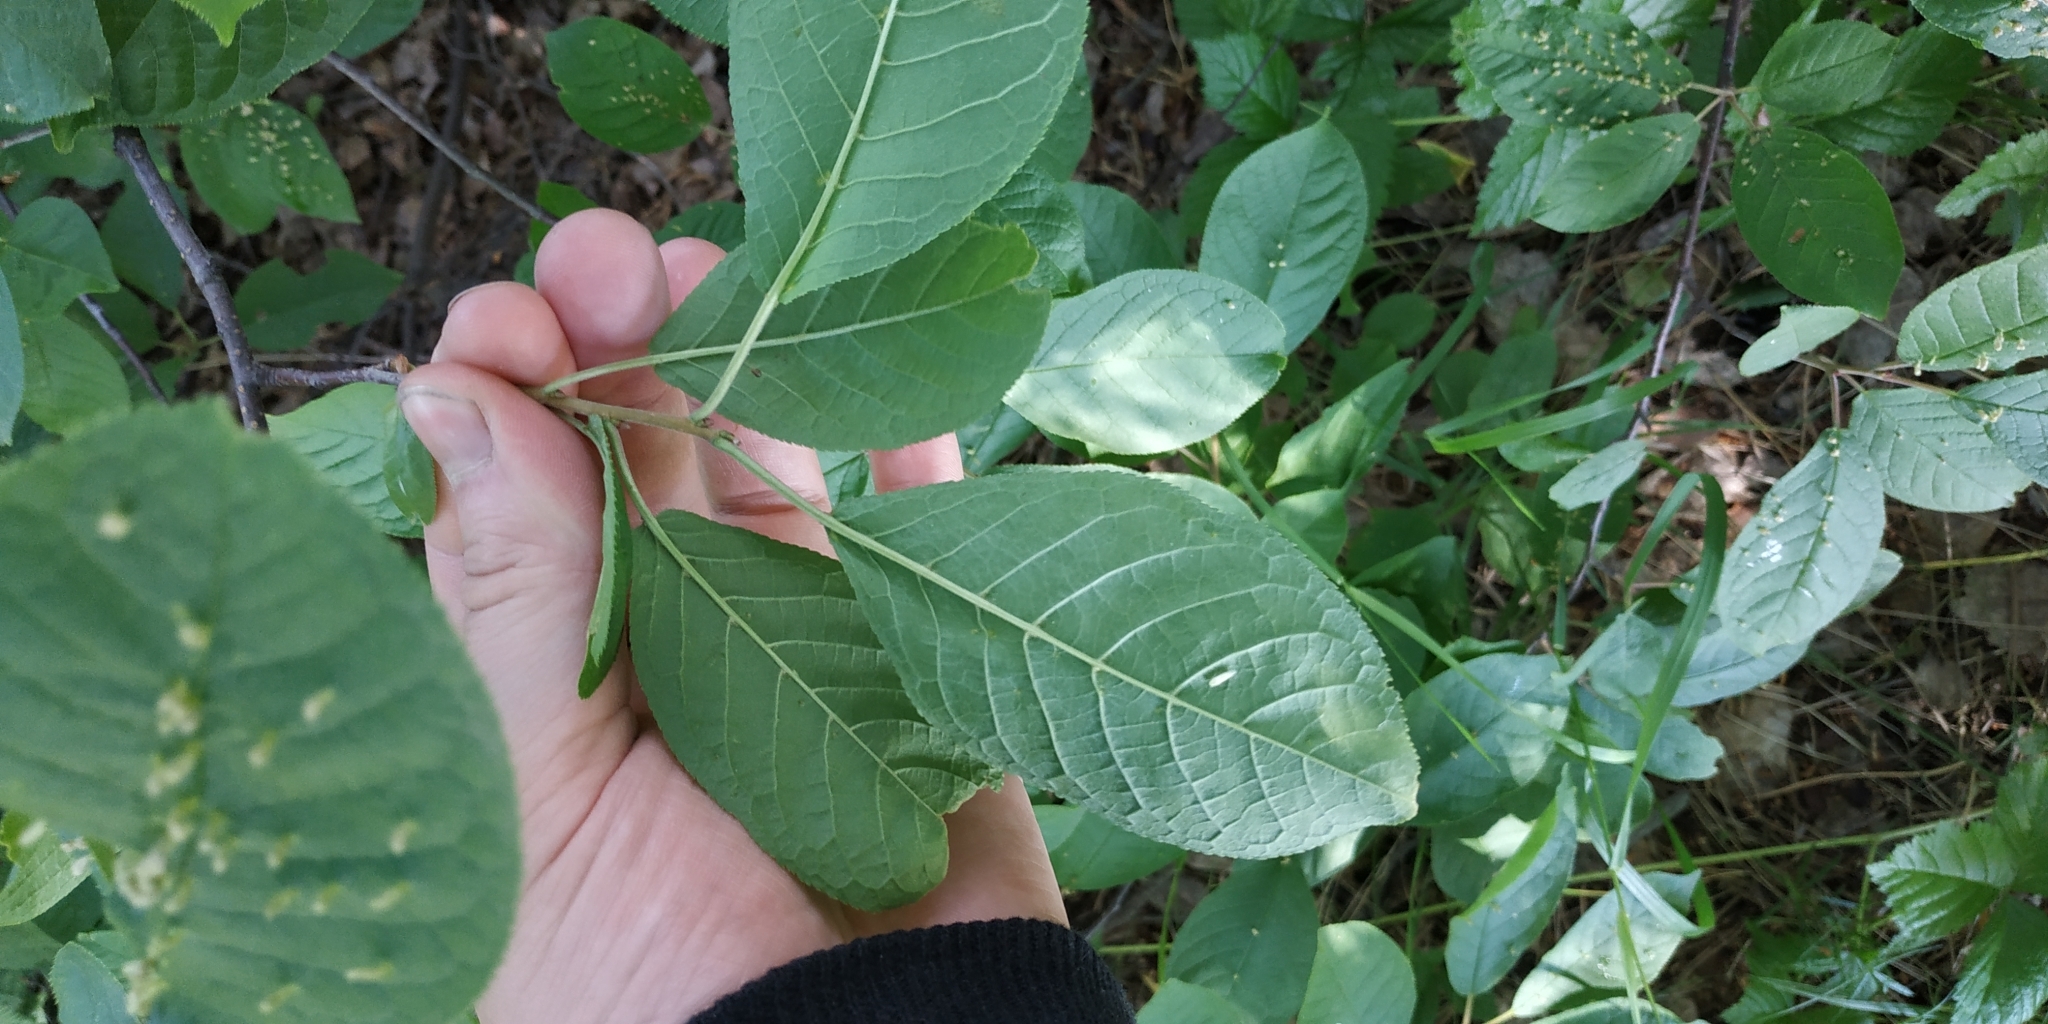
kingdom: Plantae
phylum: Tracheophyta
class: Magnoliopsida
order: Rosales
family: Rosaceae
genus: Prunus
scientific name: Prunus padus
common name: Bird cherry
